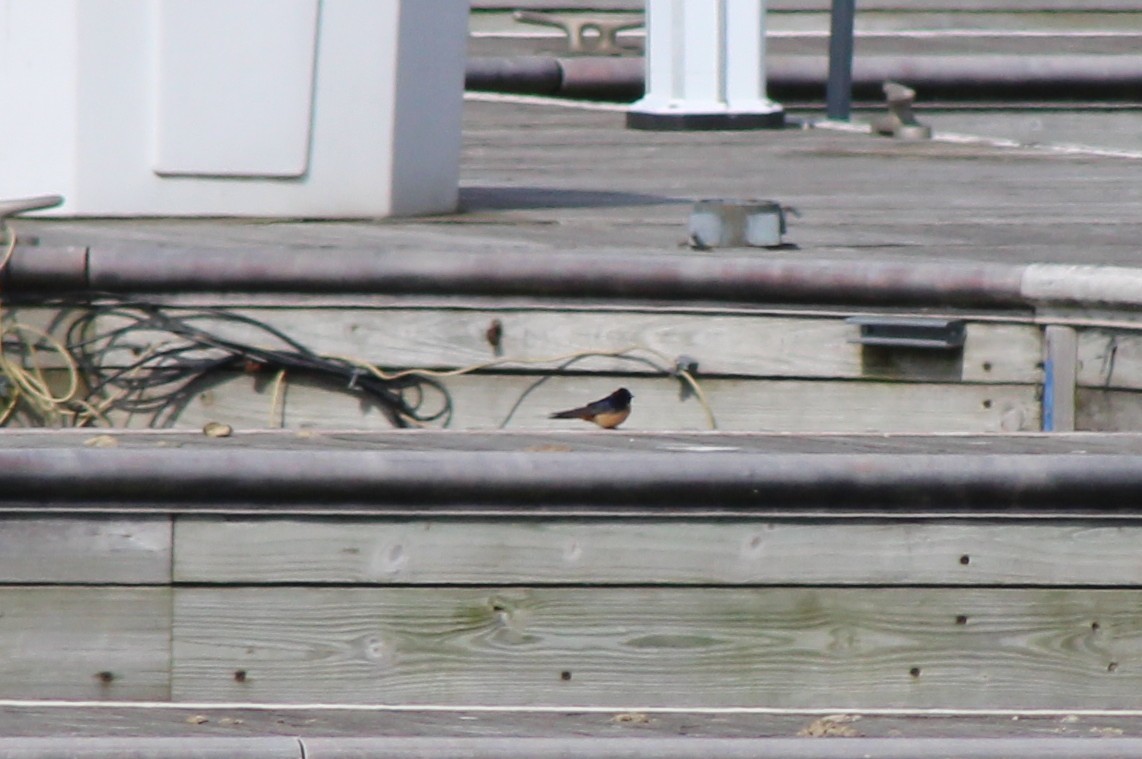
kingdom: Animalia
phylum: Chordata
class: Aves
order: Passeriformes
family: Hirundinidae
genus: Hirundo
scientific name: Hirundo rustica
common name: Barn swallow
